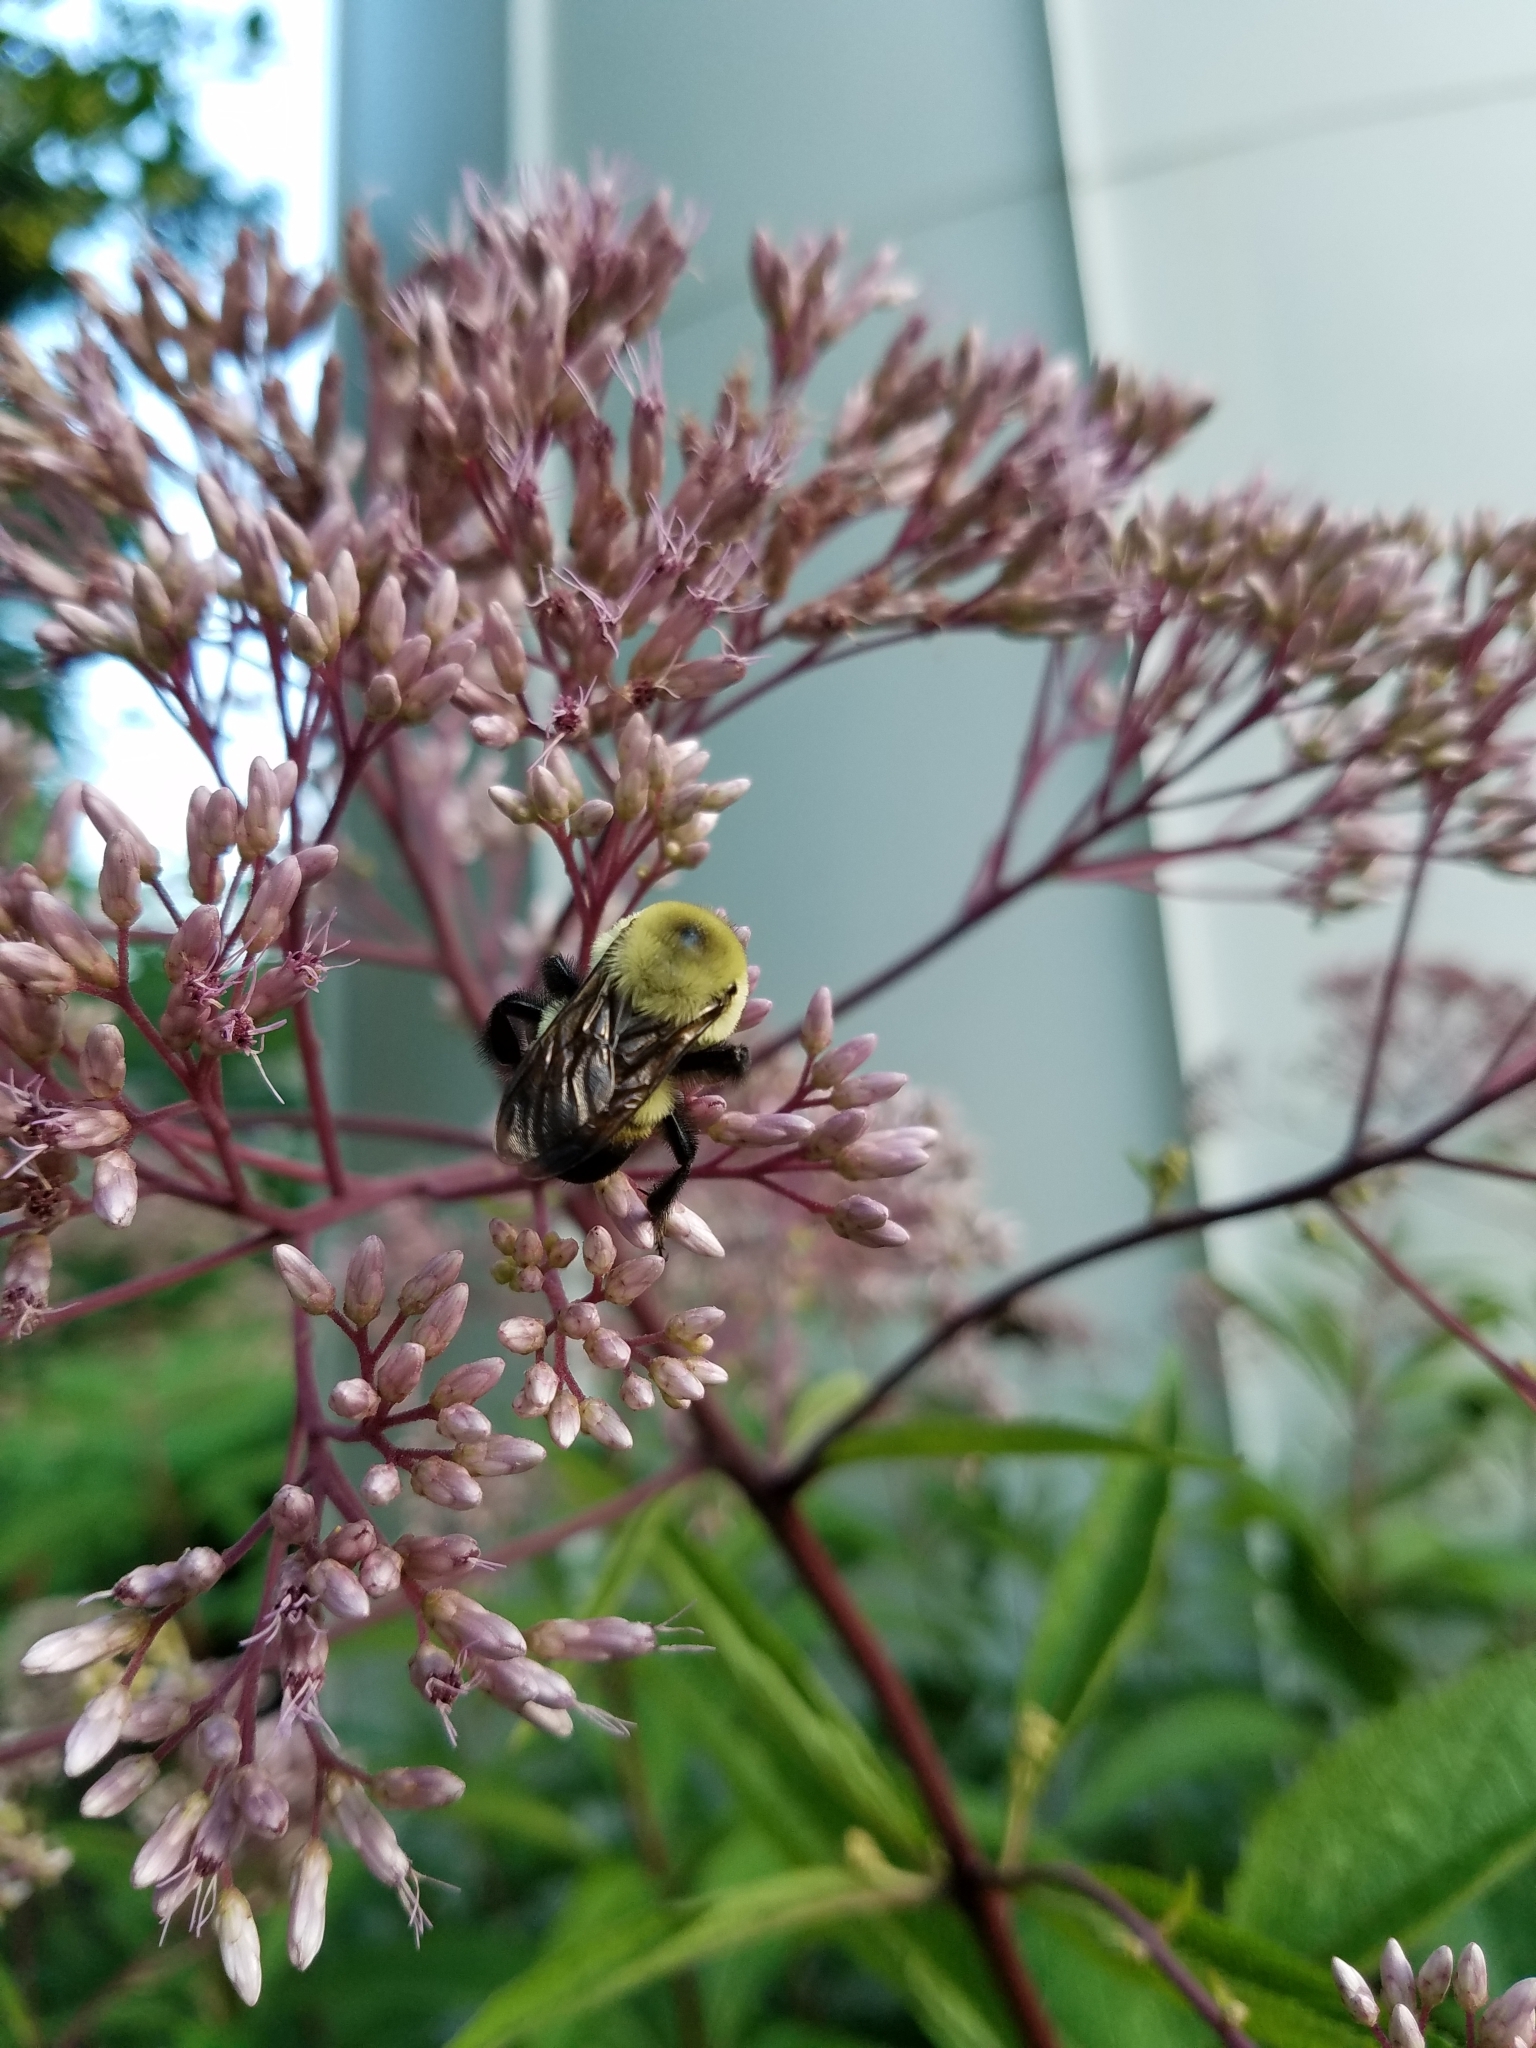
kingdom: Animalia
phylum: Arthropoda
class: Insecta
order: Hymenoptera
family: Apidae
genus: Bombus
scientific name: Bombus griseocollis
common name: Brown-belted bumble bee
